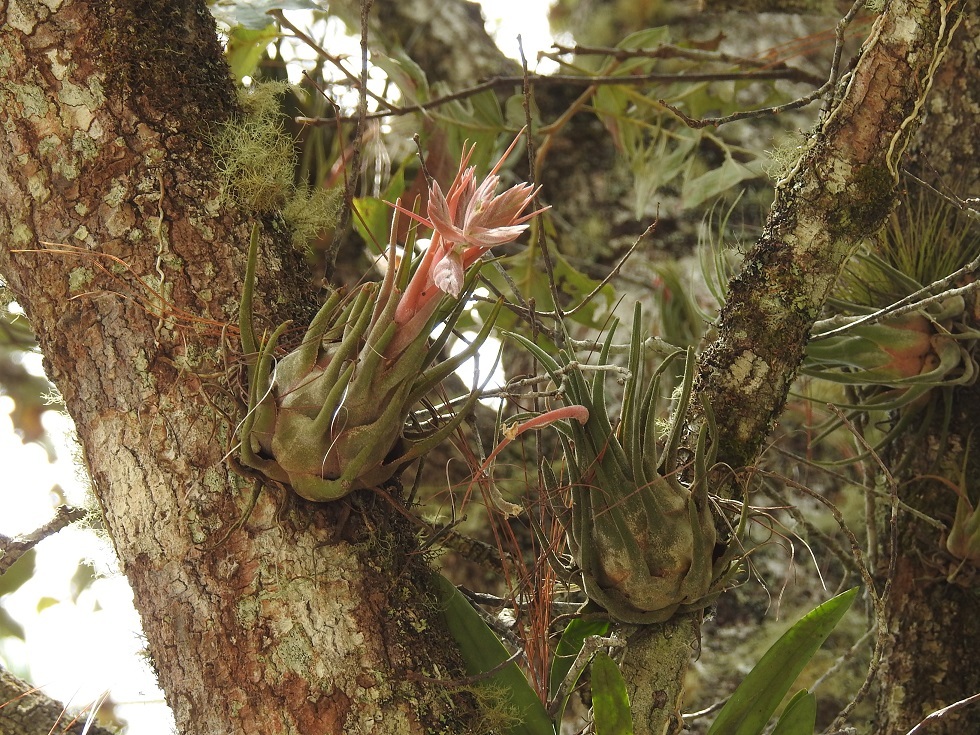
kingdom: Plantae
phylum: Tracheophyta
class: Liliopsida
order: Poales
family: Bromeliaceae
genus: Tillandsia
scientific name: Tillandsia seleriana
